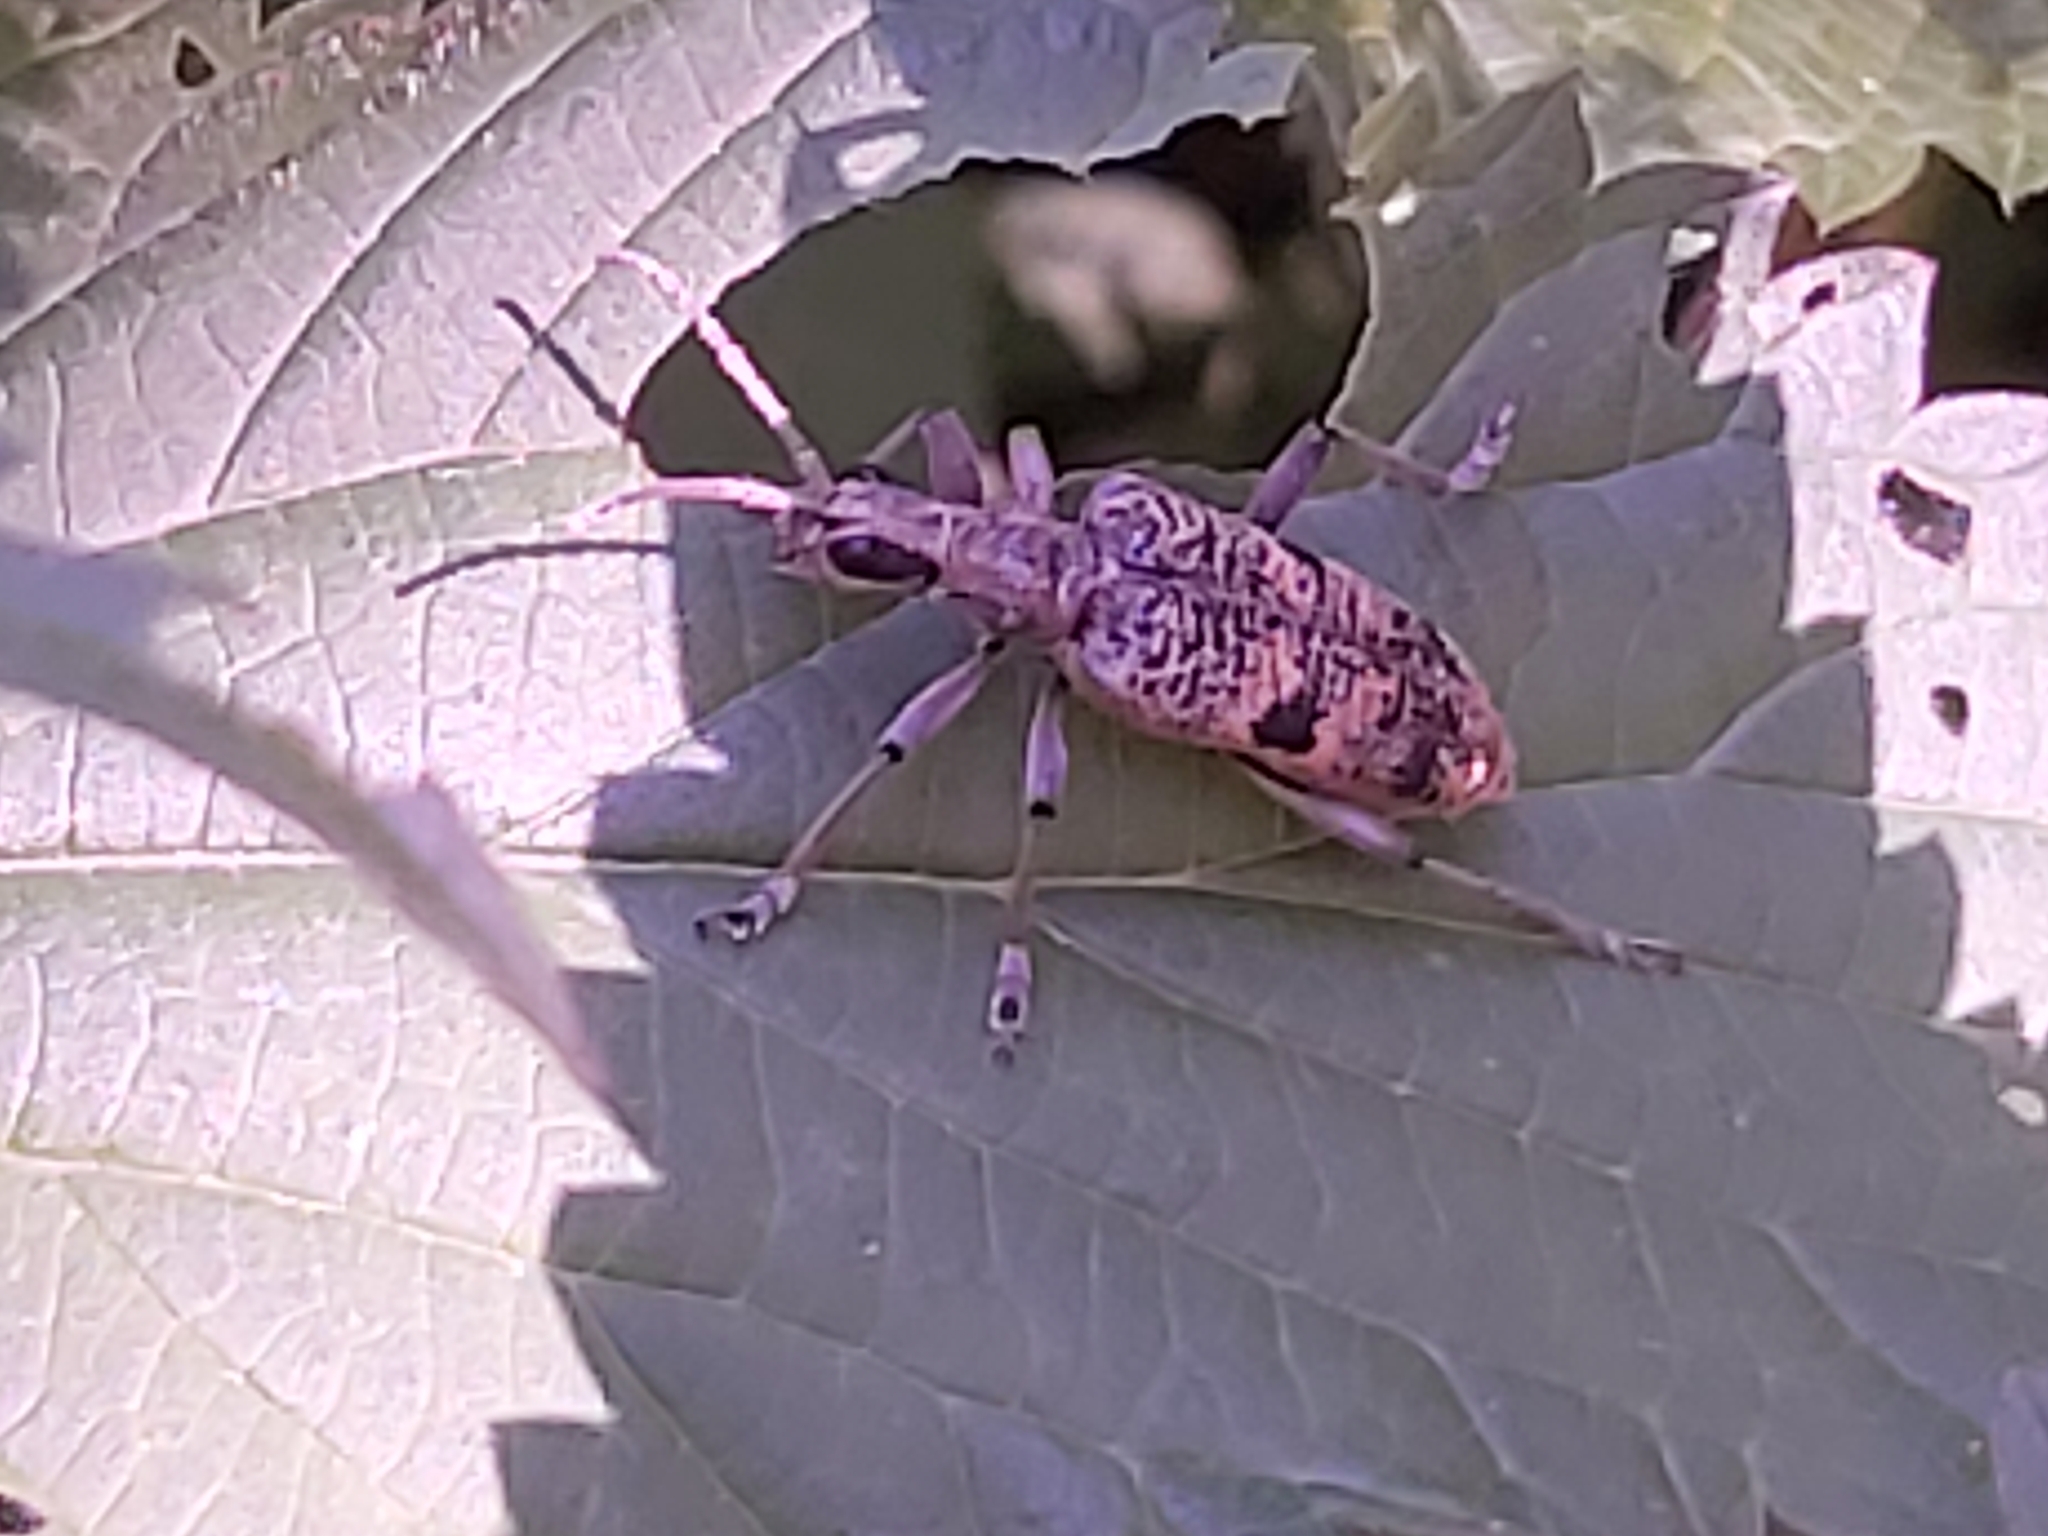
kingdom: Animalia
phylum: Arthropoda
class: Insecta
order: Coleoptera
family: Cerambycidae
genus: Rhagium
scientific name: Rhagium mordax
